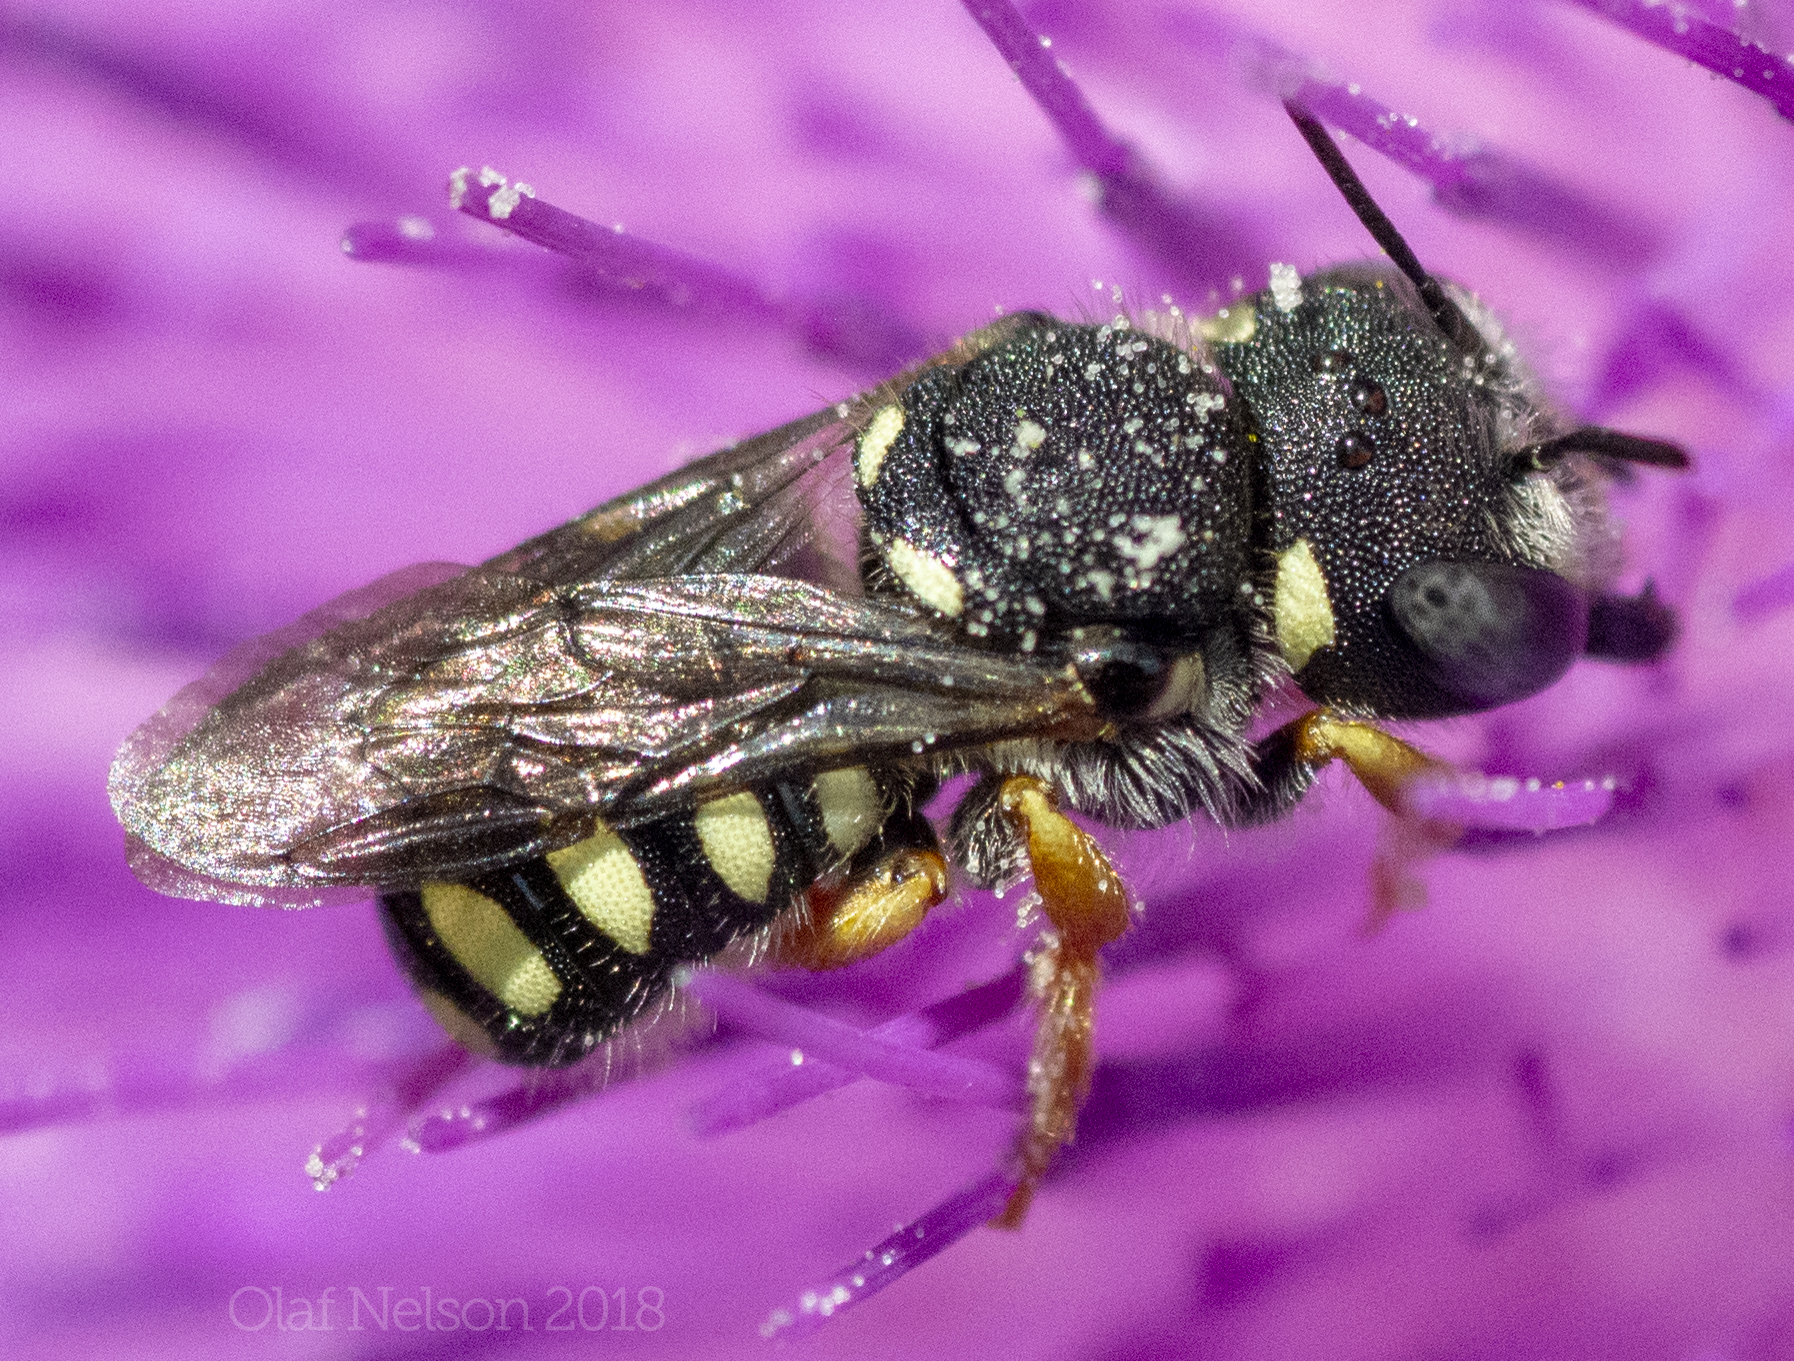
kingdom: Animalia
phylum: Arthropoda
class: Insecta
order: Hymenoptera
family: Megachilidae
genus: Pseudoanthidium
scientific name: Pseudoanthidium nanum
